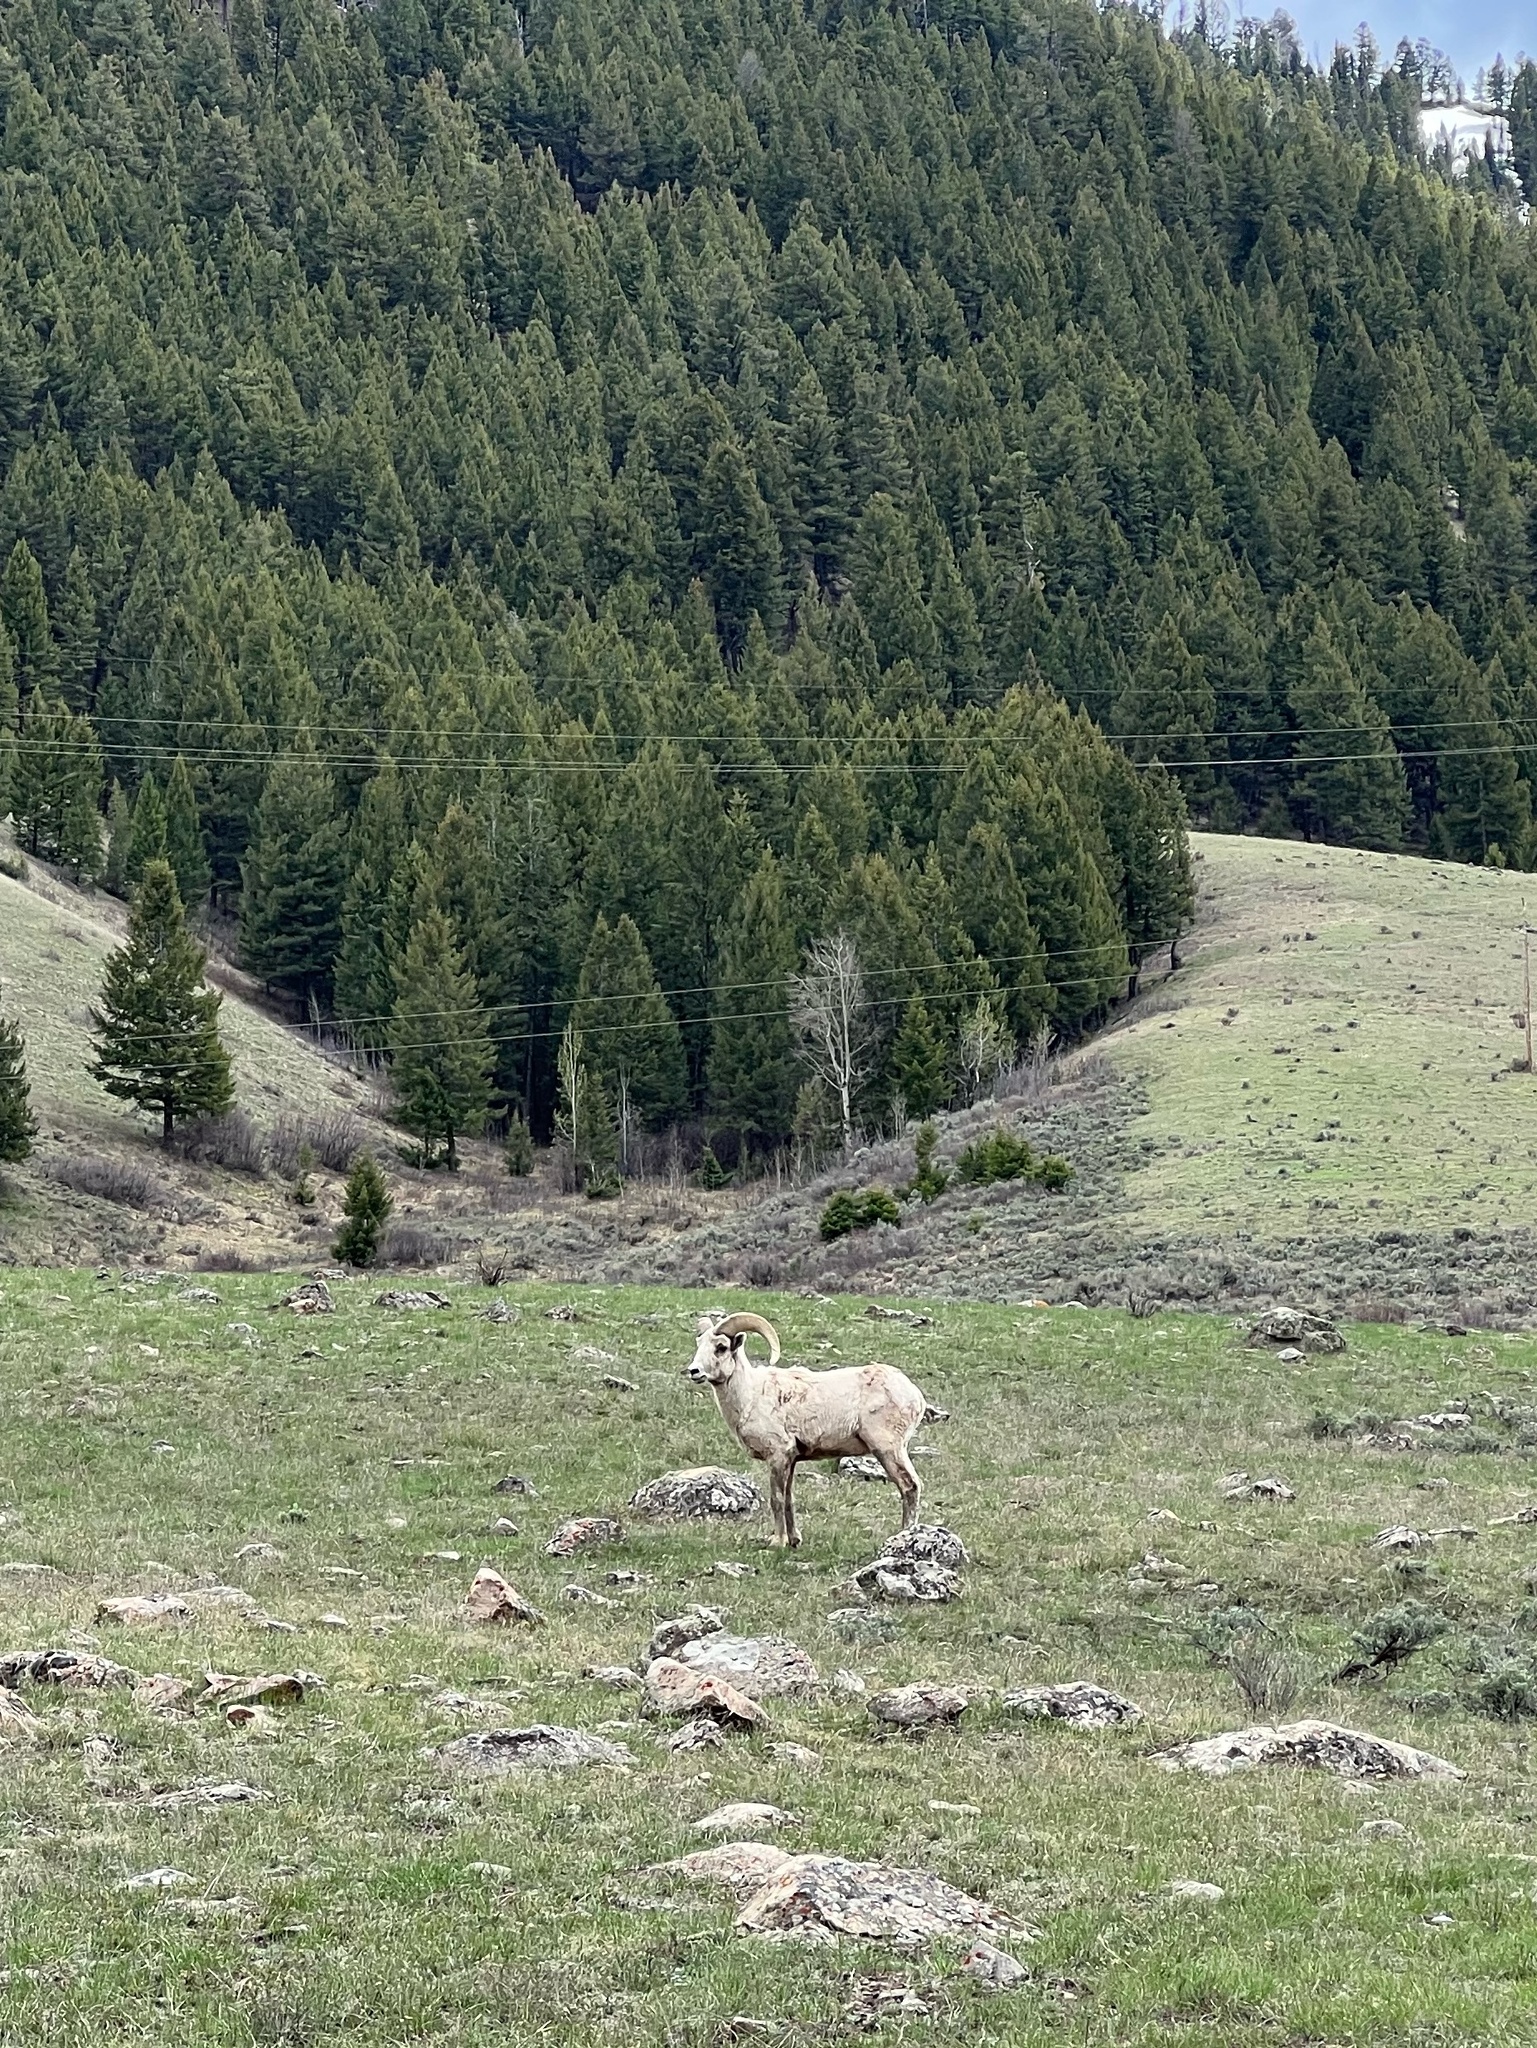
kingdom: Animalia
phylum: Chordata
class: Mammalia
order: Artiodactyla
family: Bovidae
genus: Ovis
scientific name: Ovis canadensis
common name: Bighorn sheep
